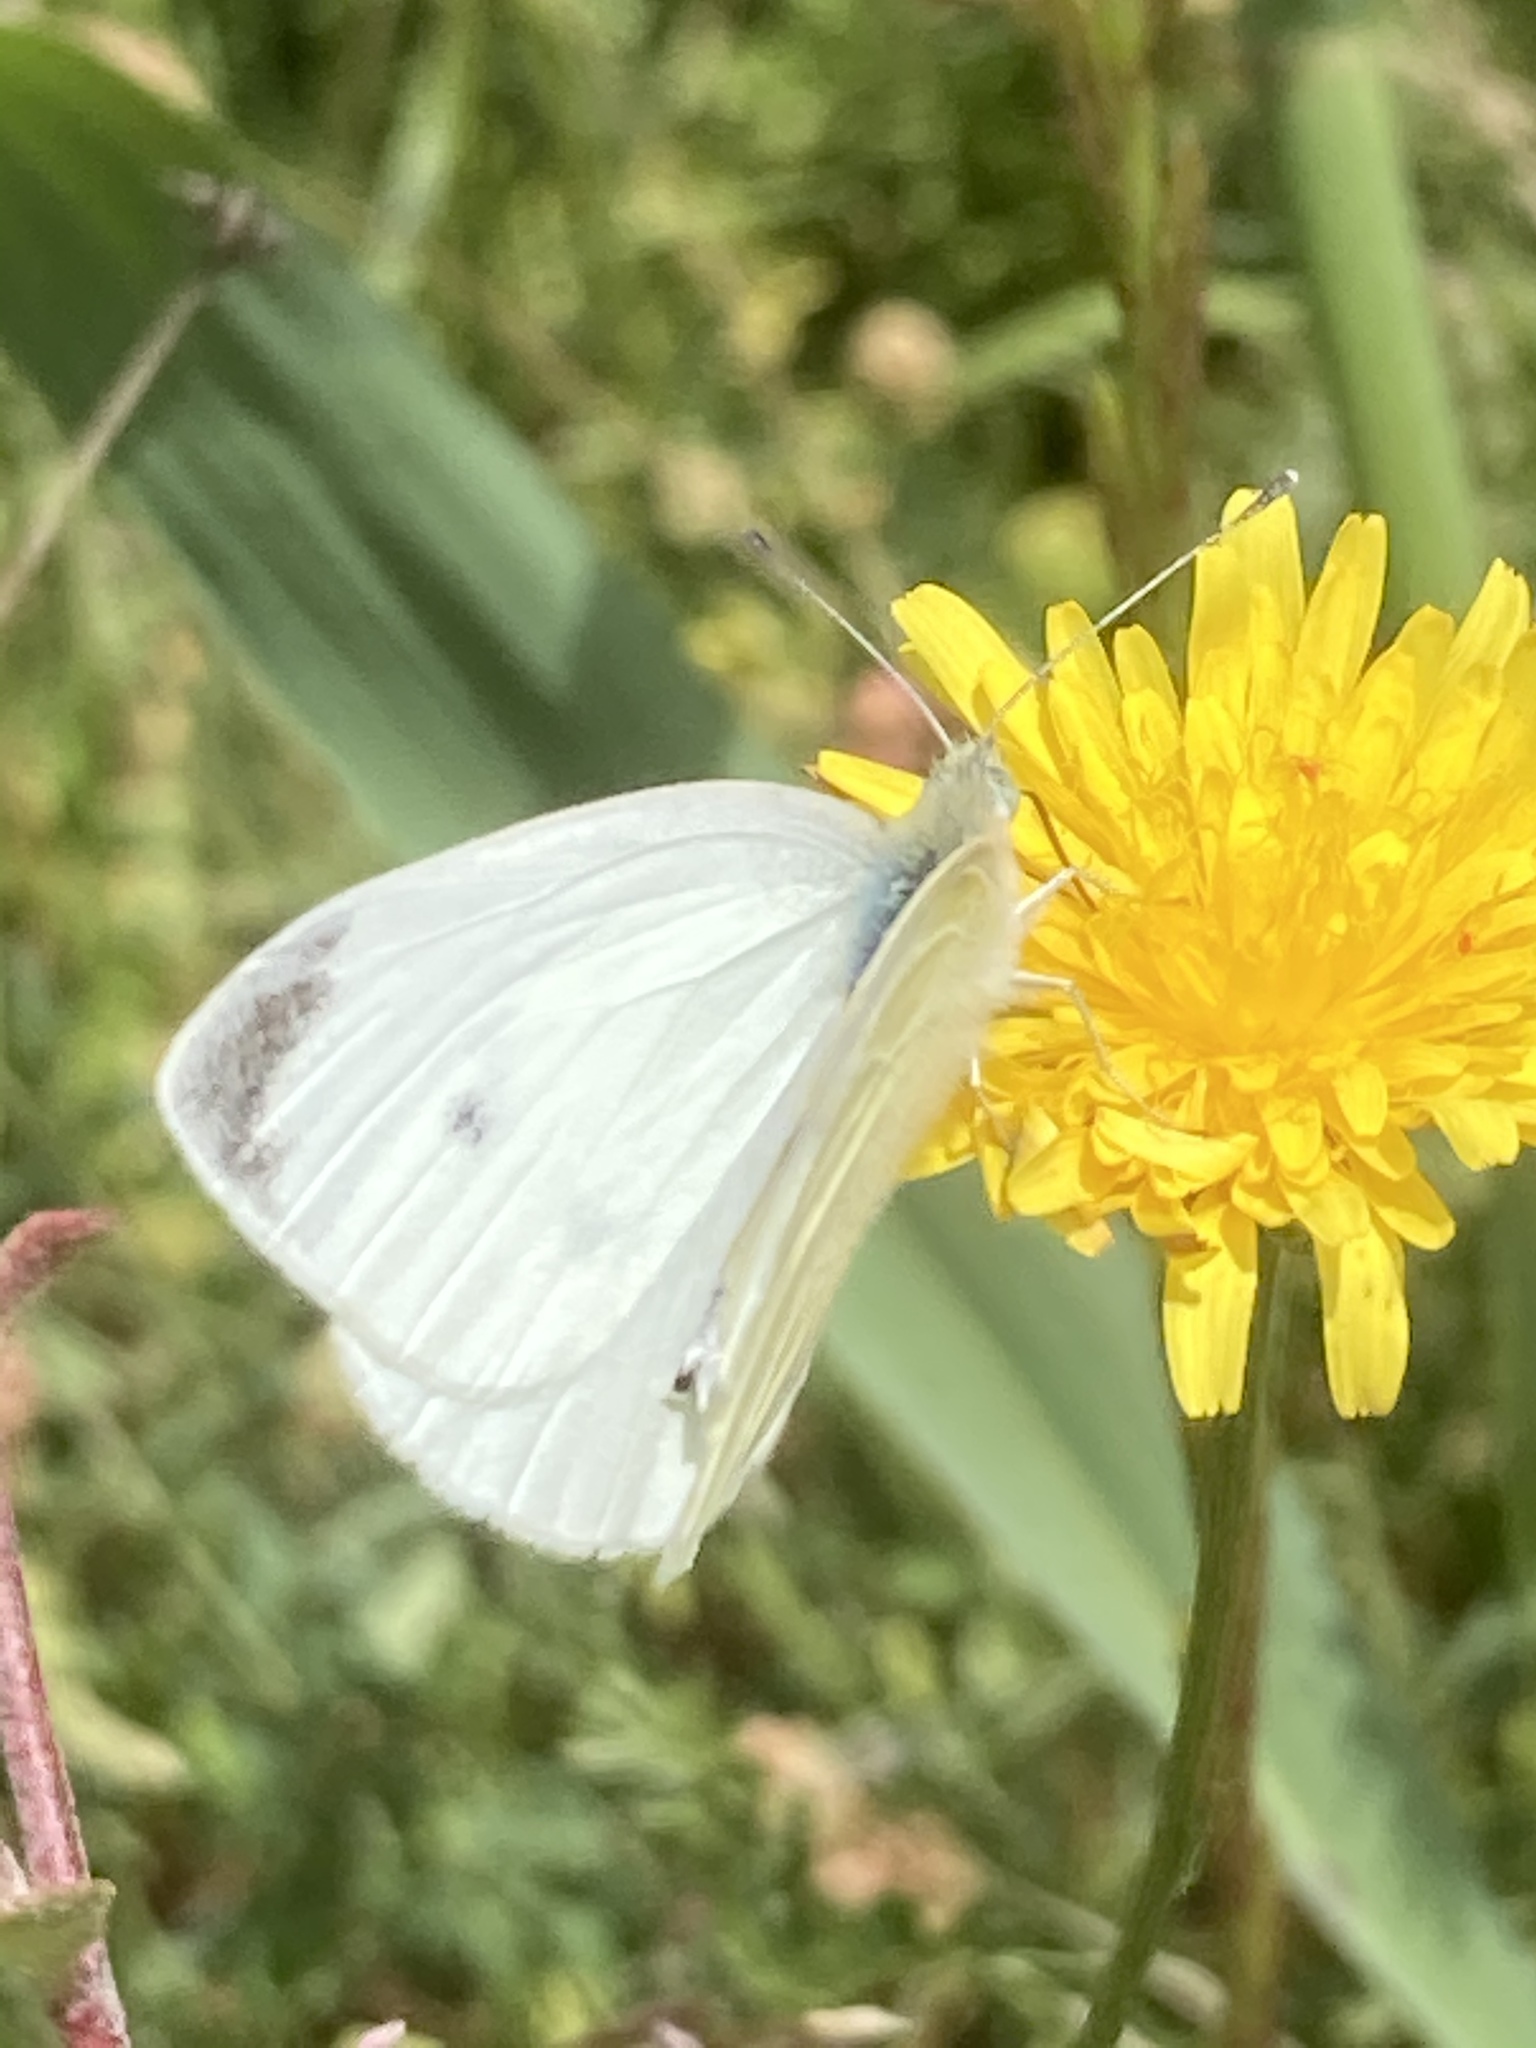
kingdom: Animalia
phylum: Arthropoda
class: Insecta
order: Lepidoptera
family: Pieridae
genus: Pieris
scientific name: Pieris rapae
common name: Small white
